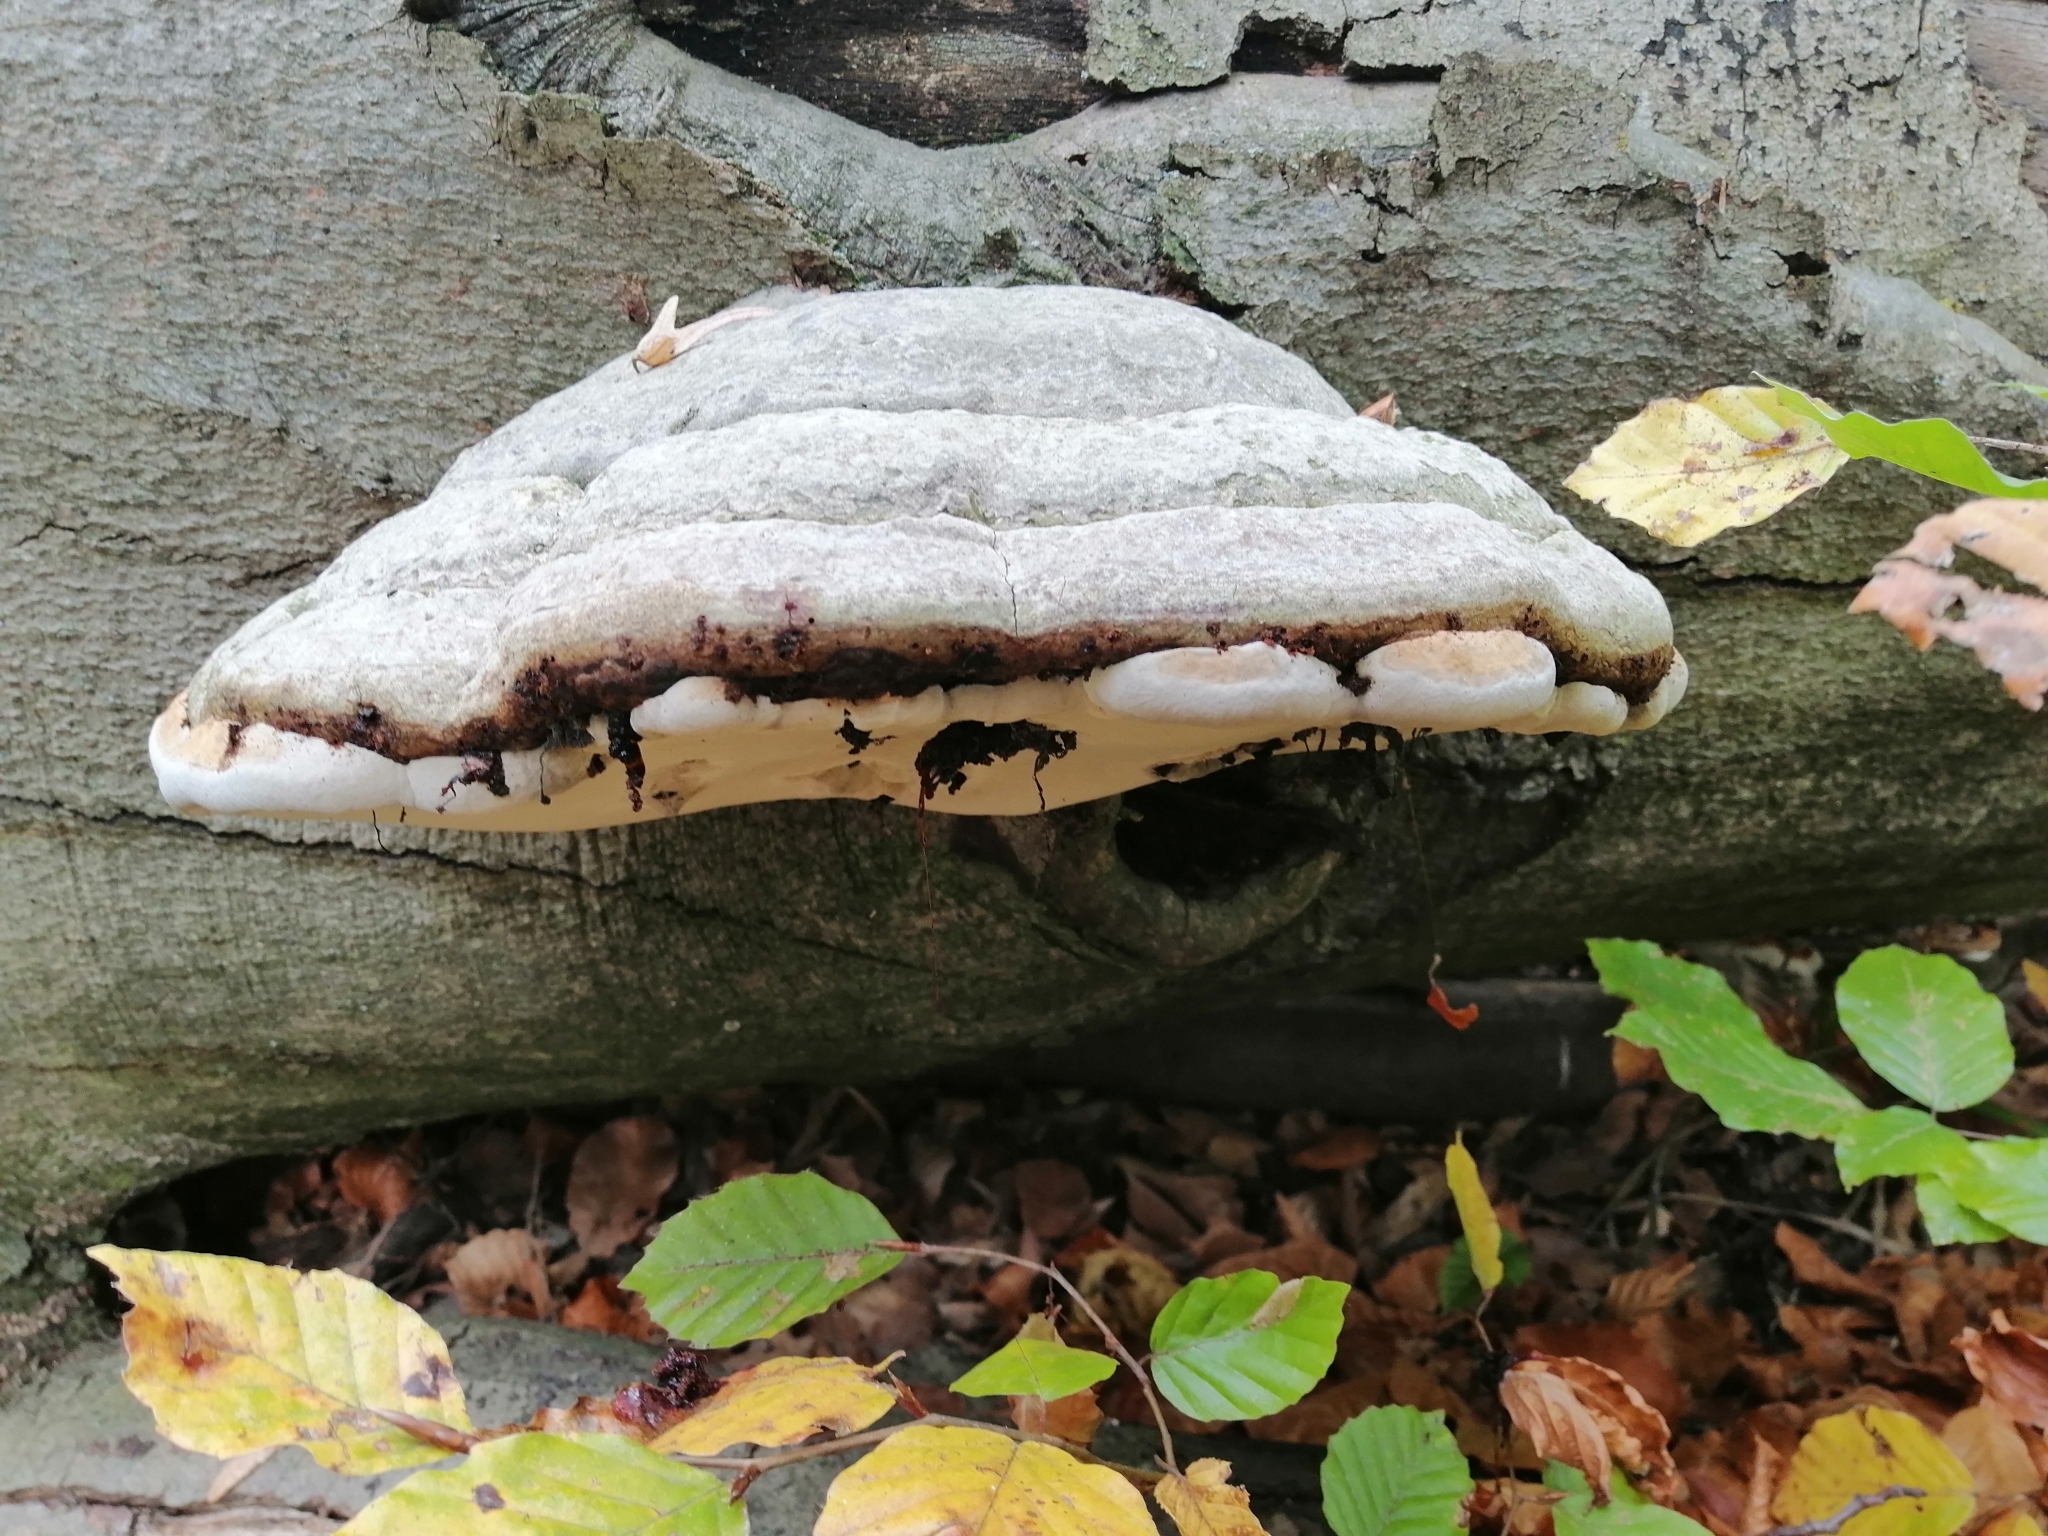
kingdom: Fungi
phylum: Basidiomycota
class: Agaricomycetes
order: Polyporales
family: Polyporaceae
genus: Fomes
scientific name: Fomes fomentarius
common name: Hoof fungus
